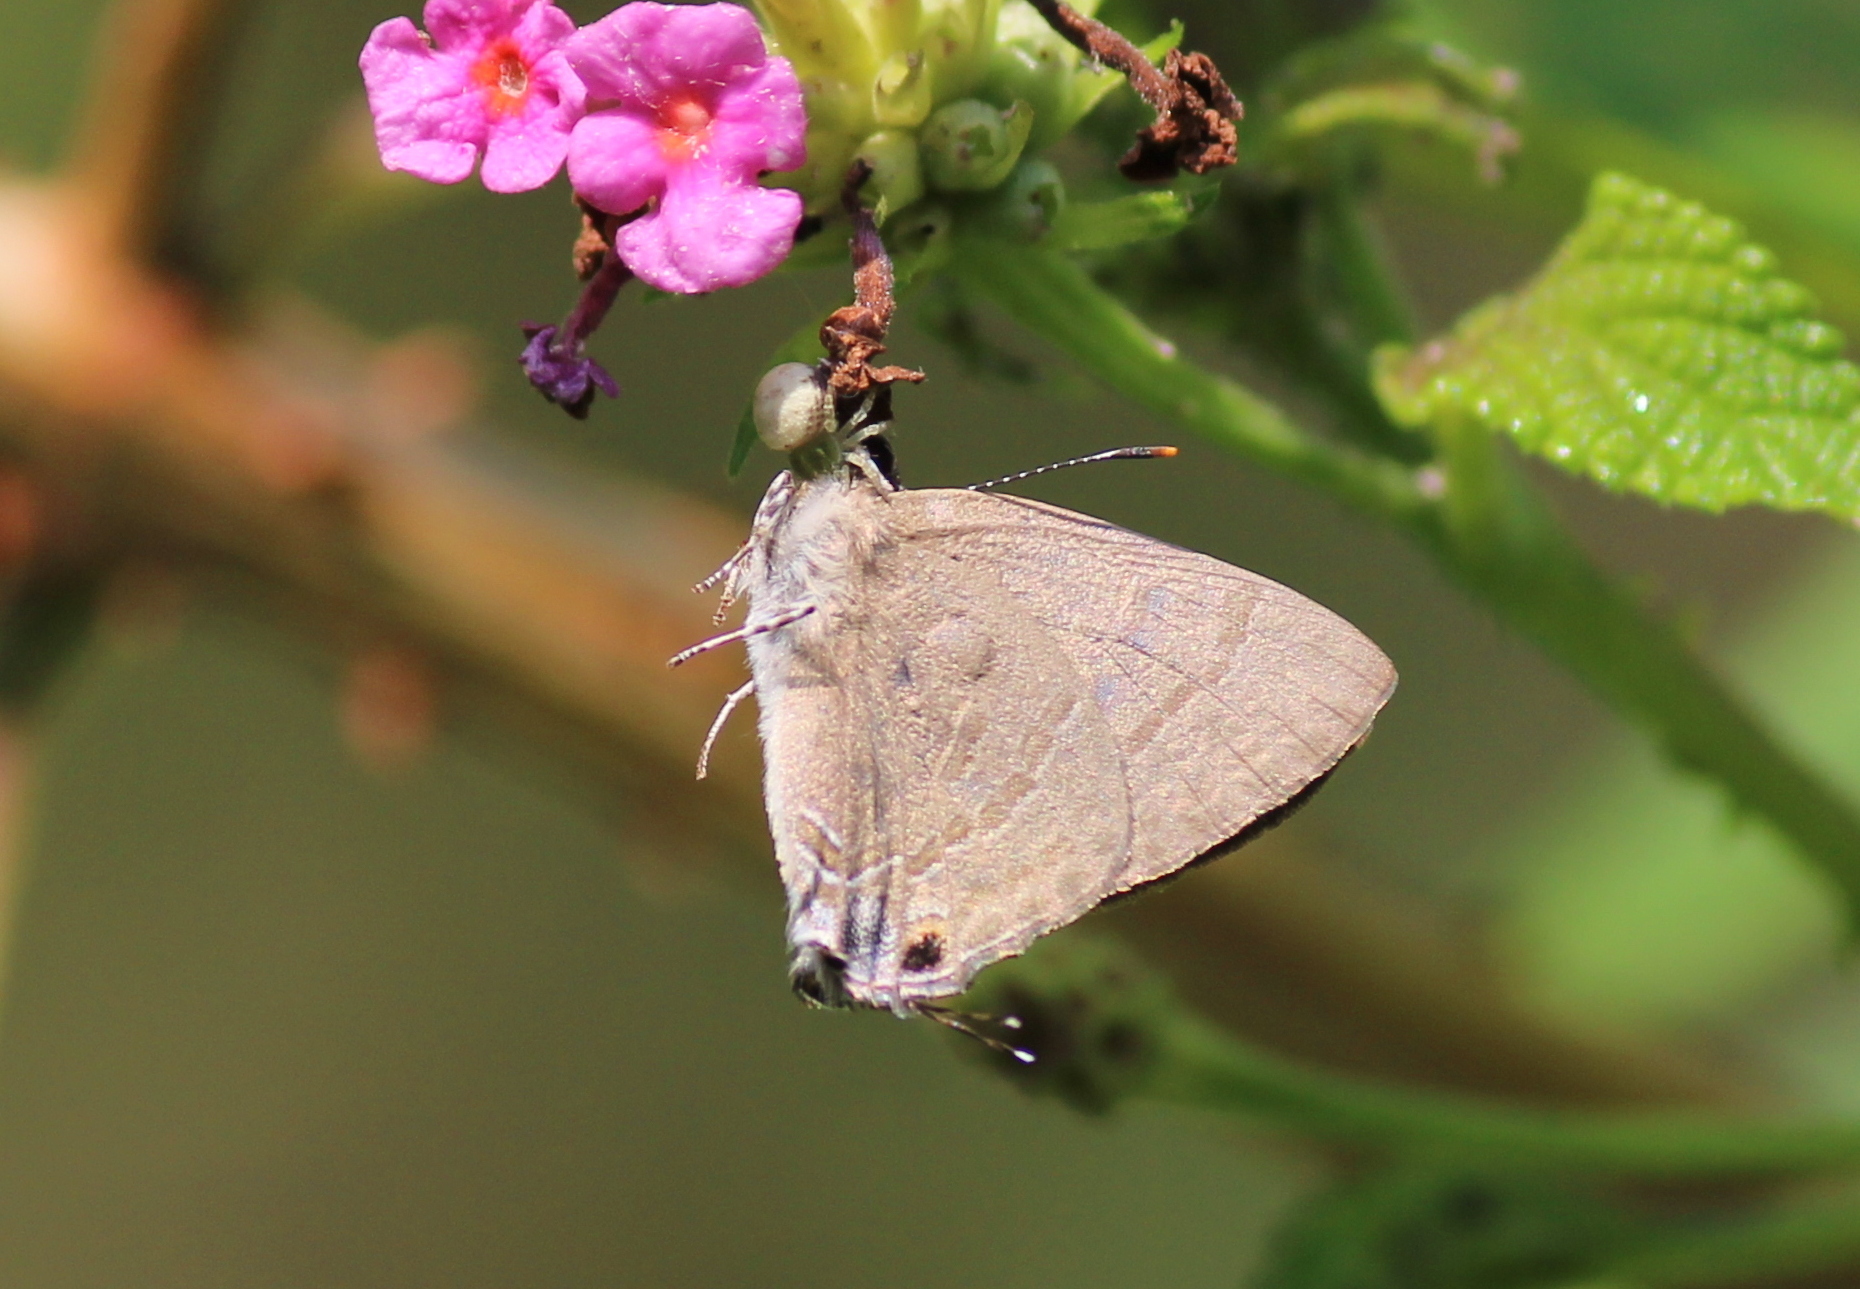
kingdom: Animalia
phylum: Arthropoda
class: Insecta
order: Lepidoptera
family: Lycaenidae
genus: Rapala
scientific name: Rapala manea
